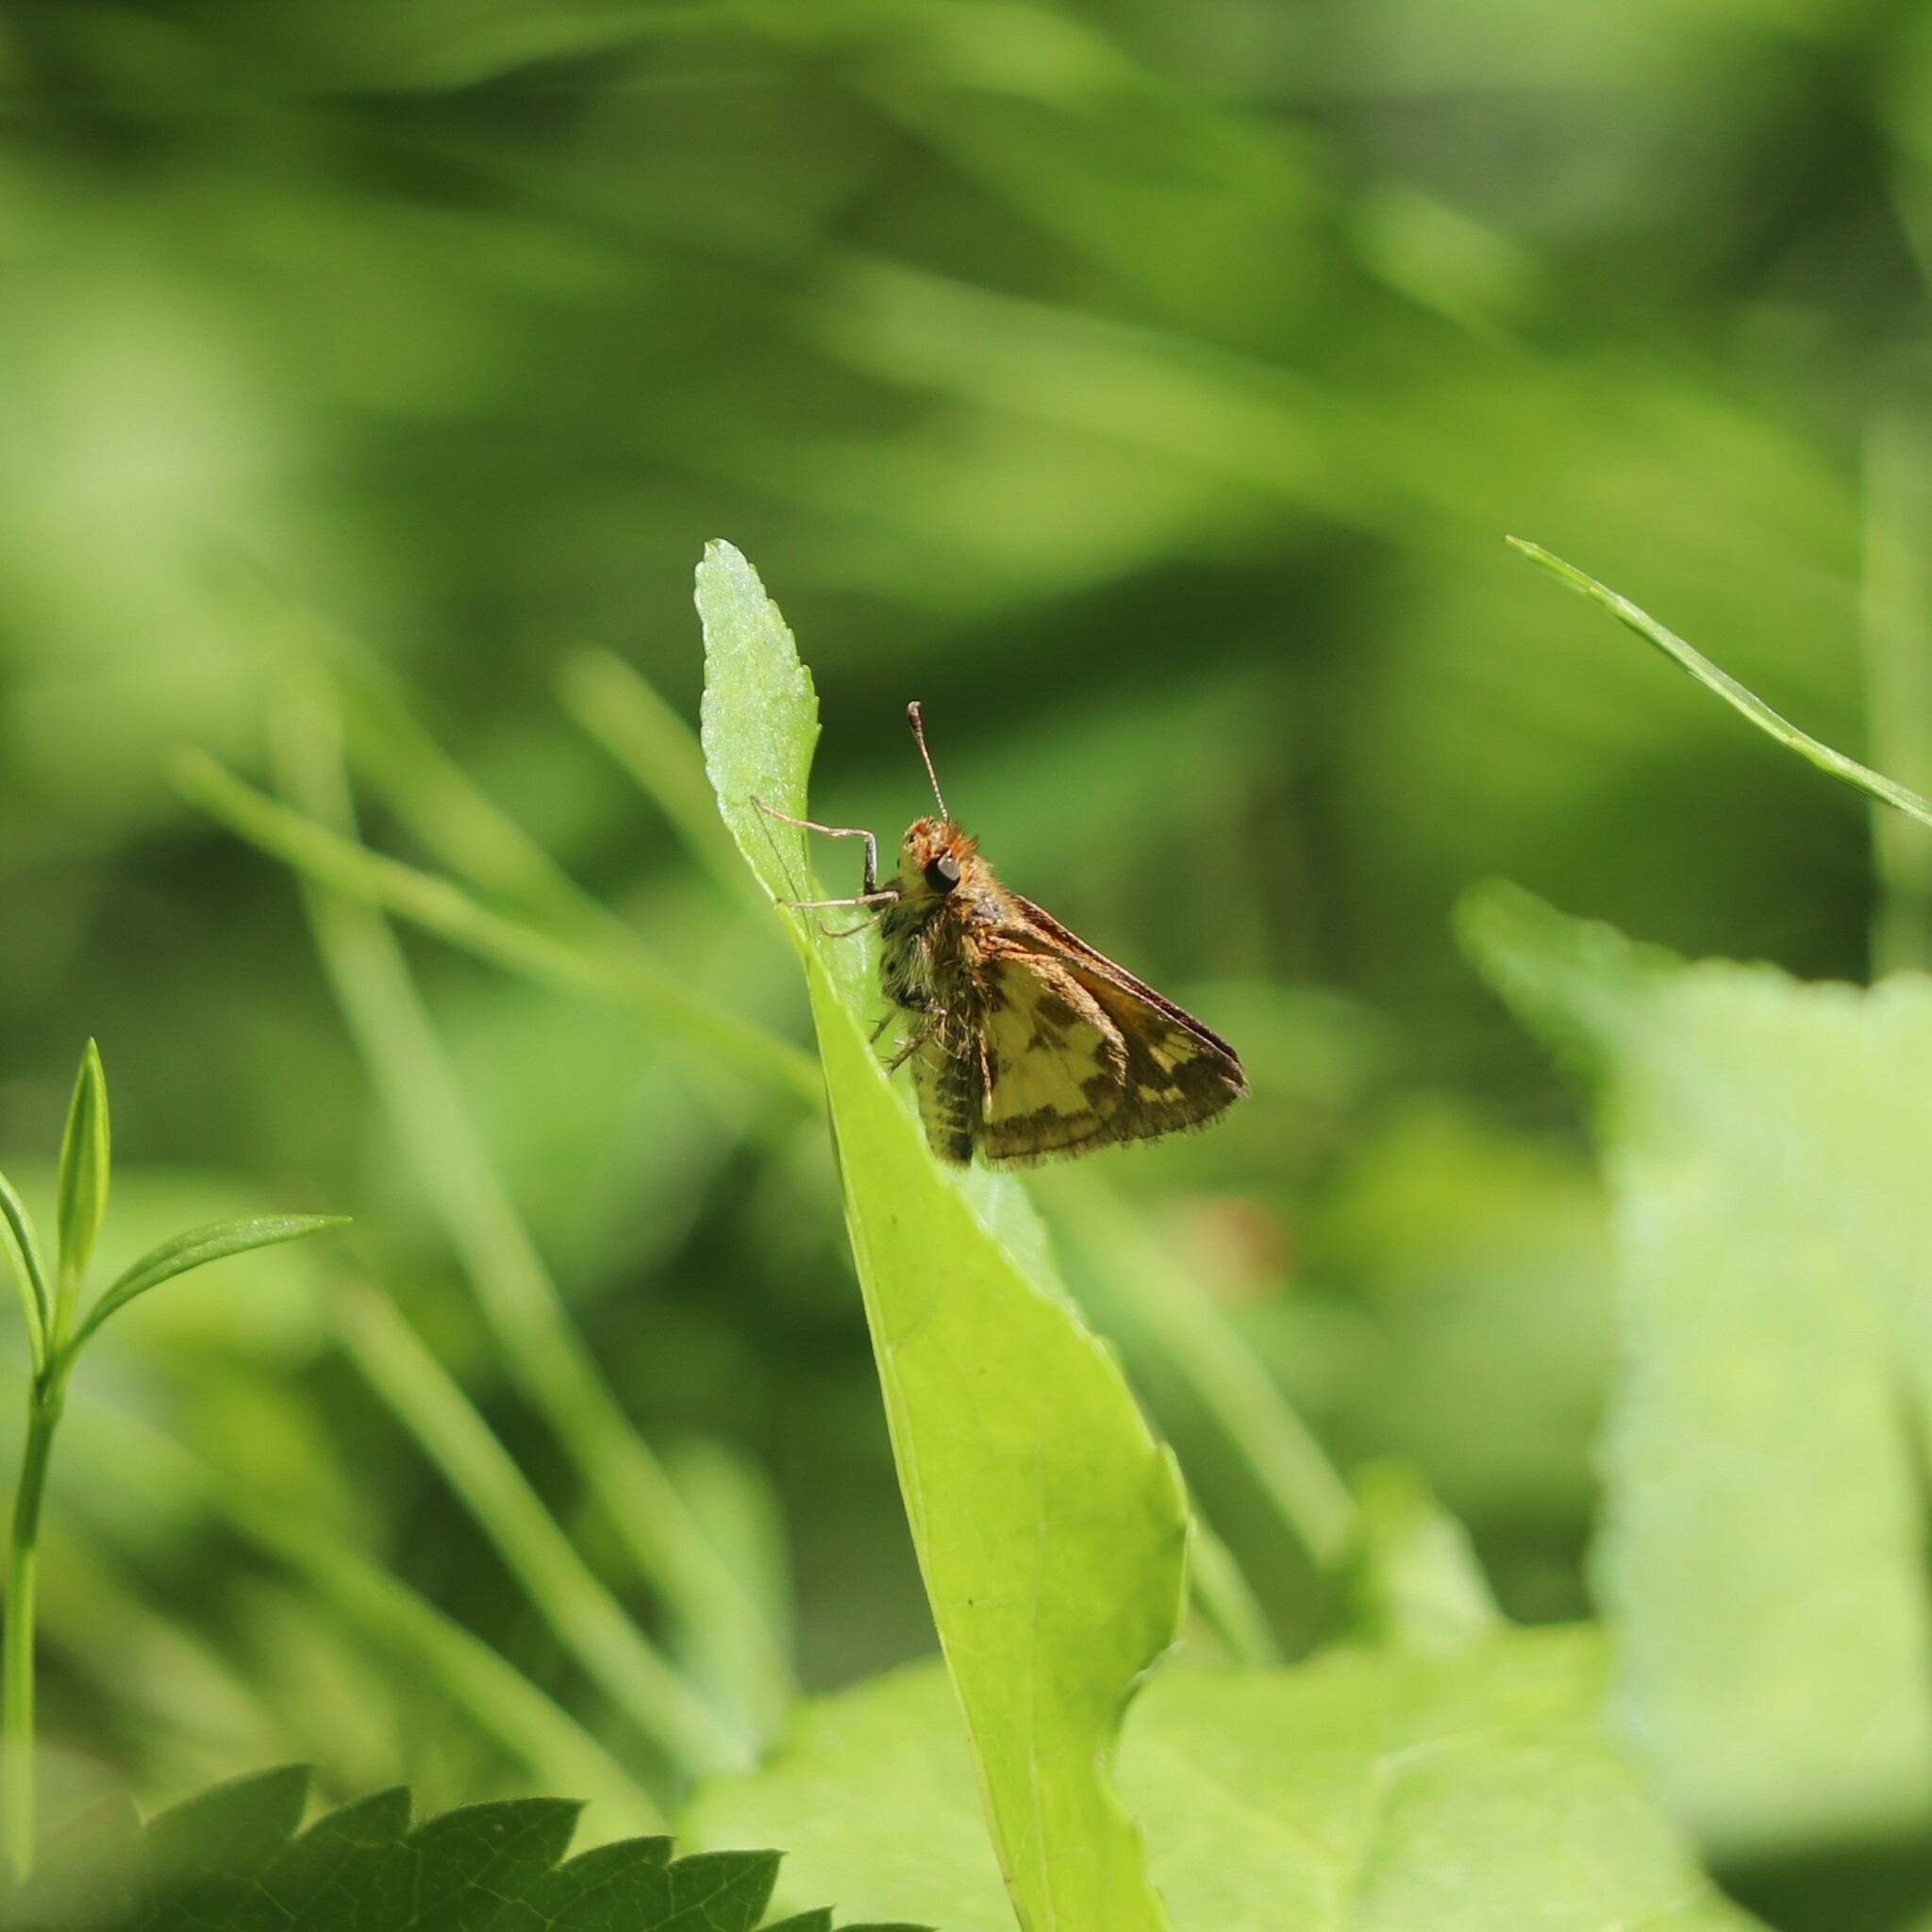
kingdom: Animalia
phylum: Arthropoda
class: Insecta
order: Lepidoptera
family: Hesperiidae
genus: Polites
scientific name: Polites coras
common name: Peck's skipper
